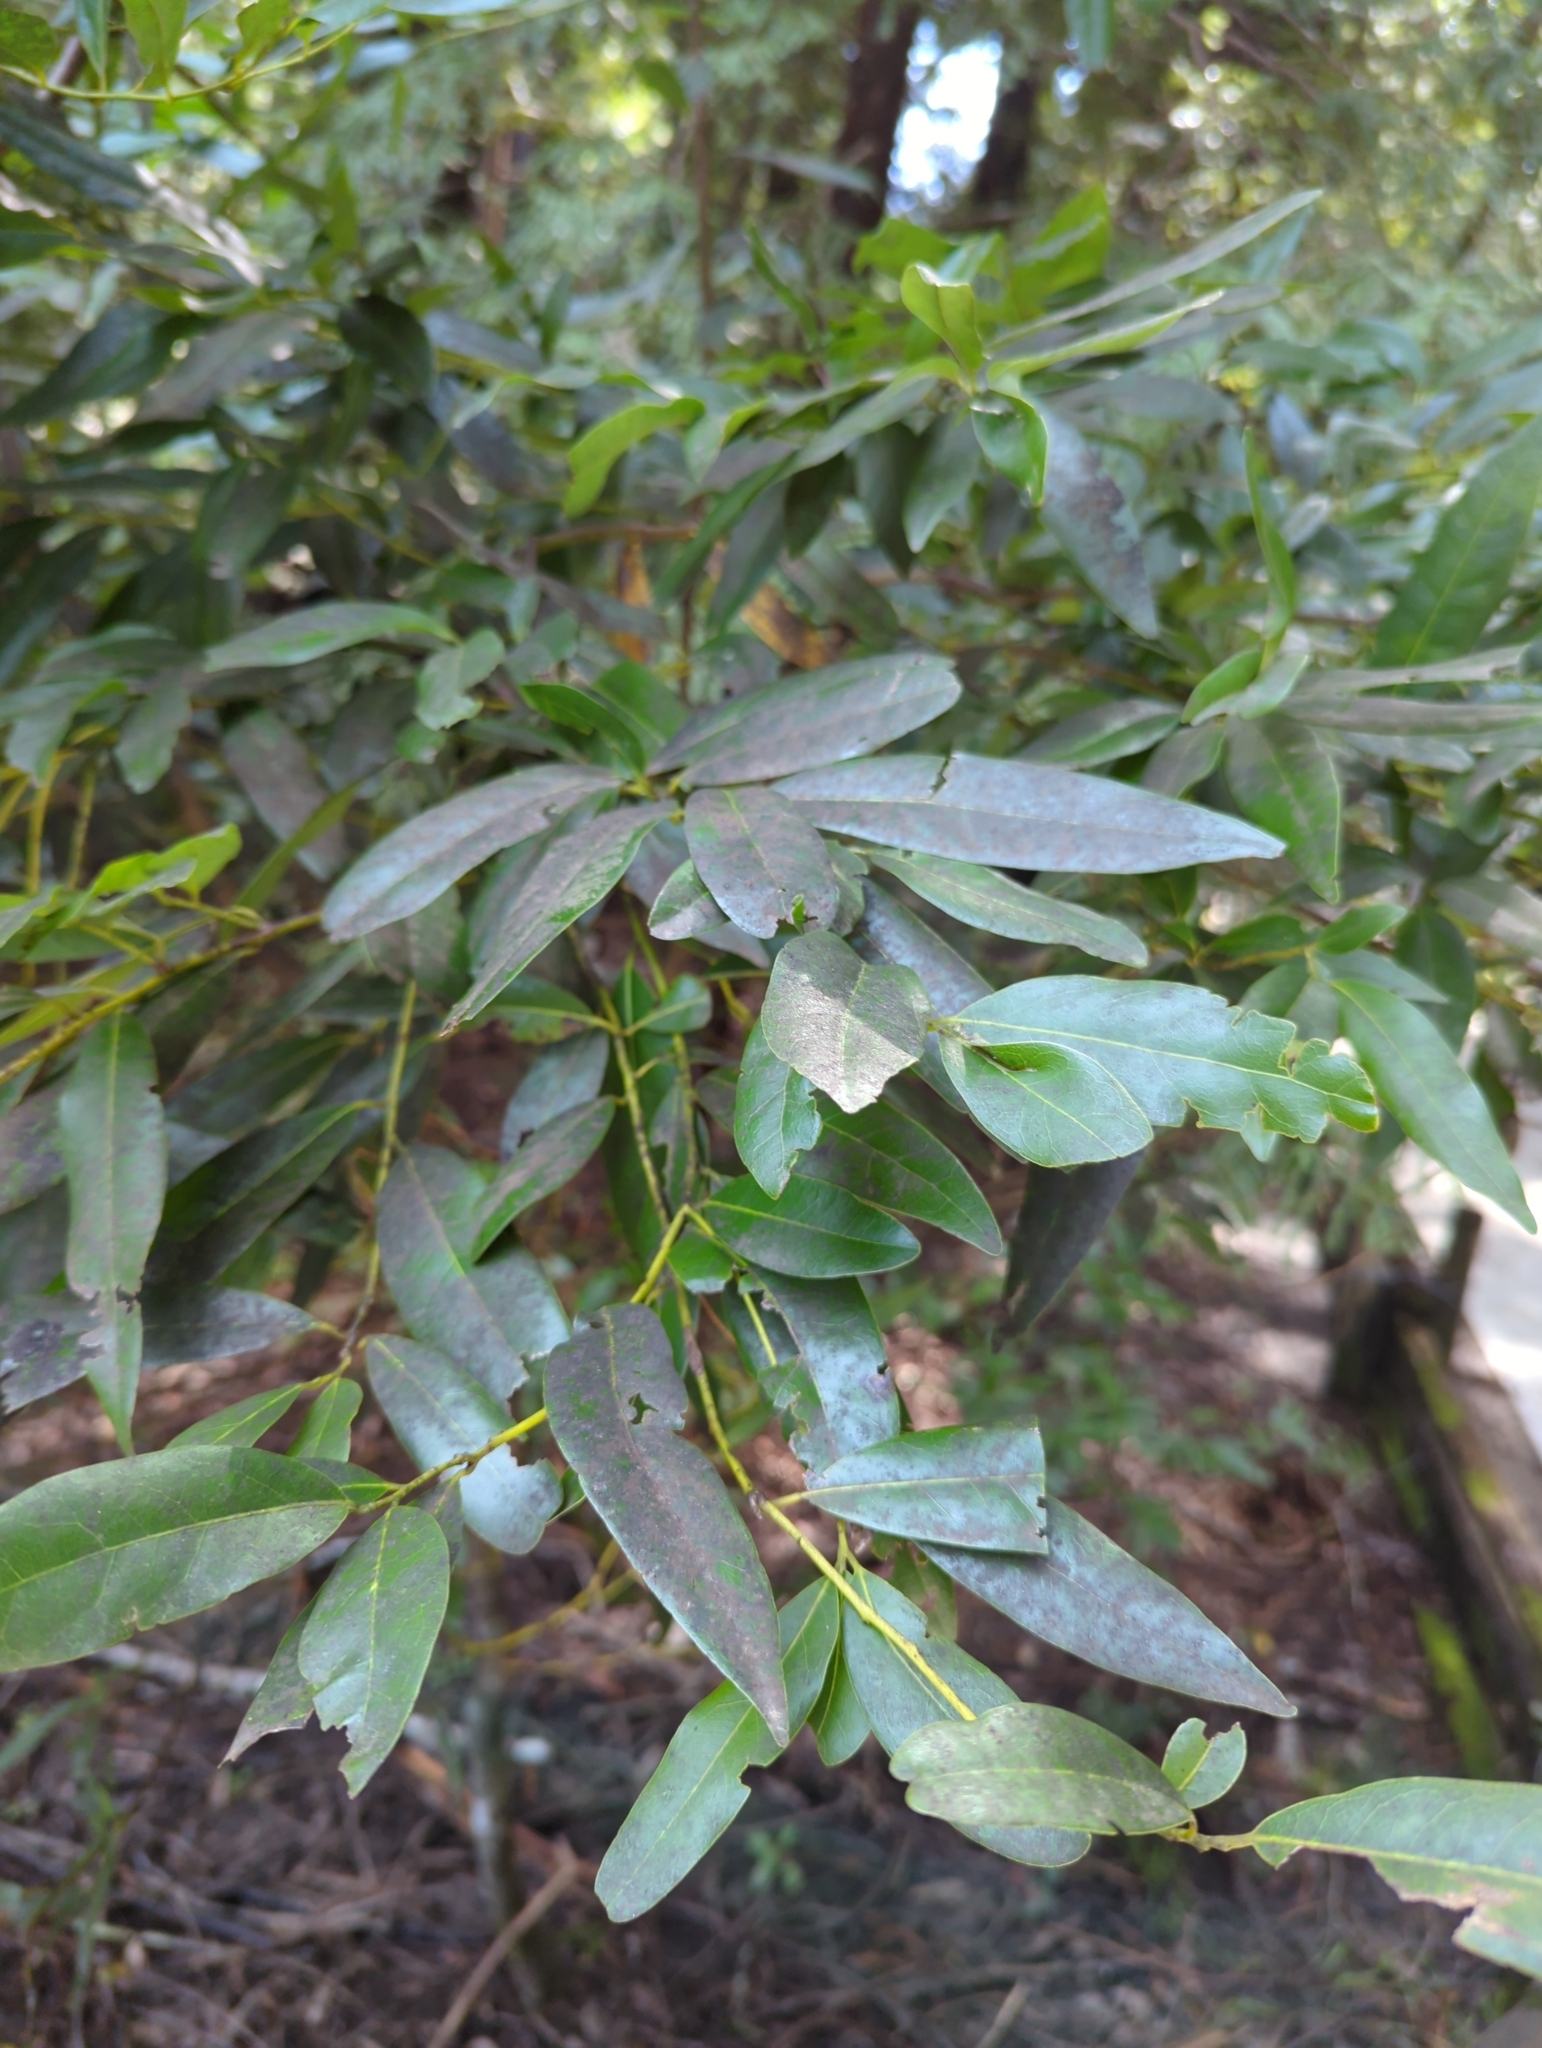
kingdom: Plantae
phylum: Tracheophyta
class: Magnoliopsida
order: Laurales
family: Lauraceae
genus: Umbellularia
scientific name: Umbellularia californica
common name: California bay
